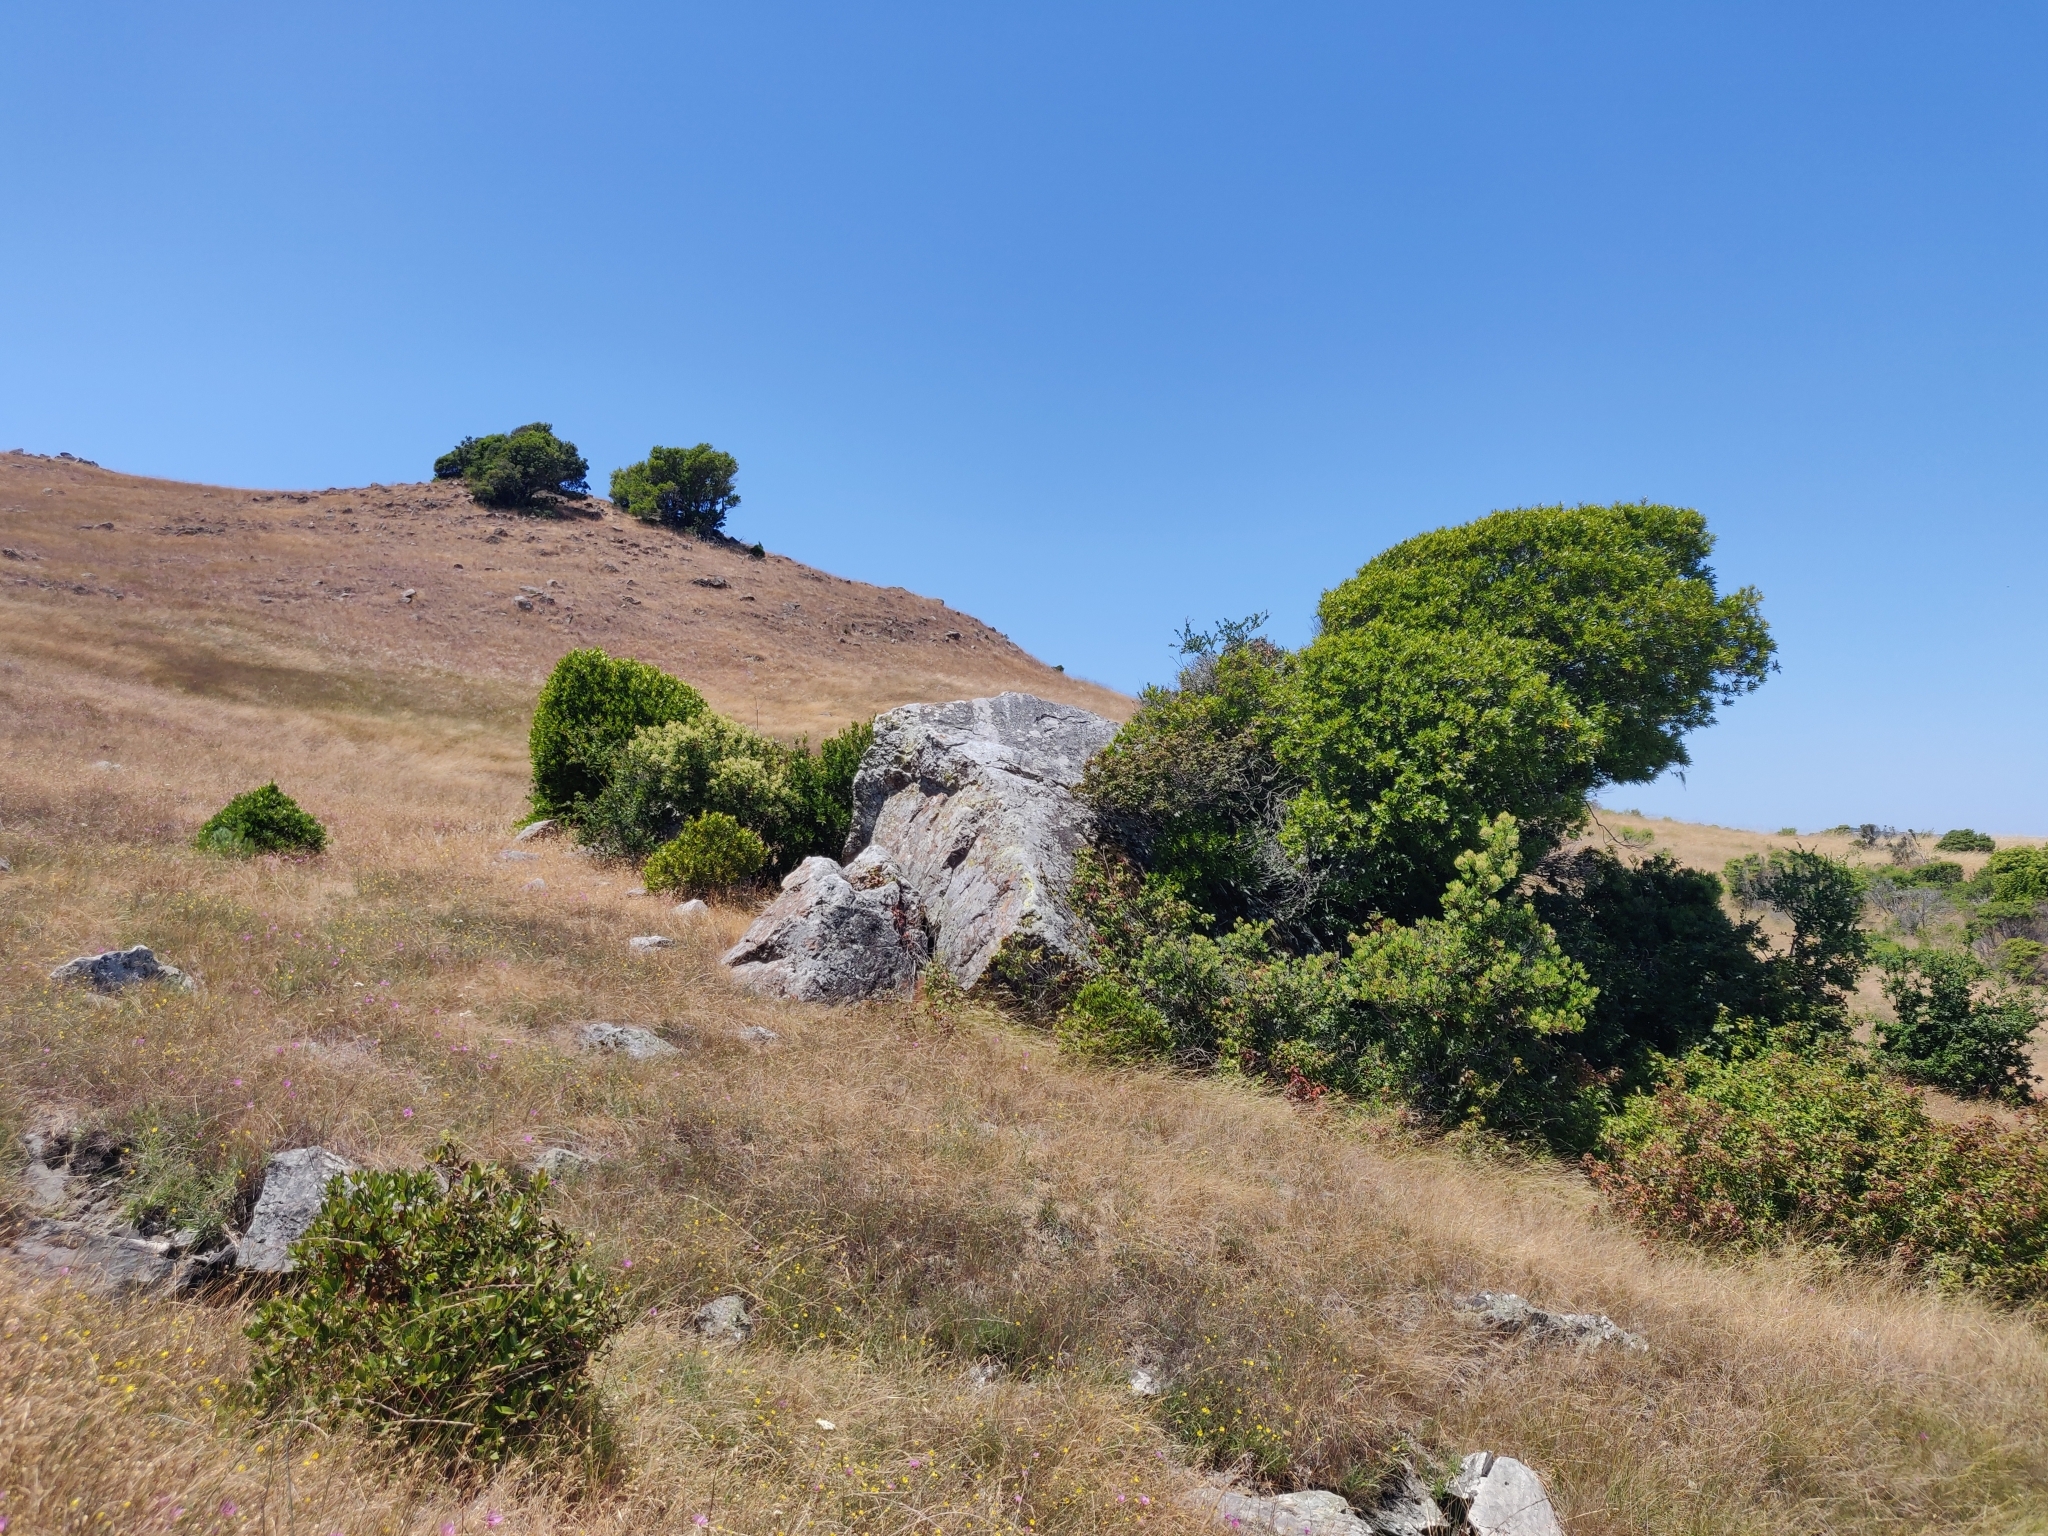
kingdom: Plantae
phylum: Tracheophyta
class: Magnoliopsida
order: Myrtales
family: Onagraceae
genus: Clarkia
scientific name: Clarkia rubicunda
